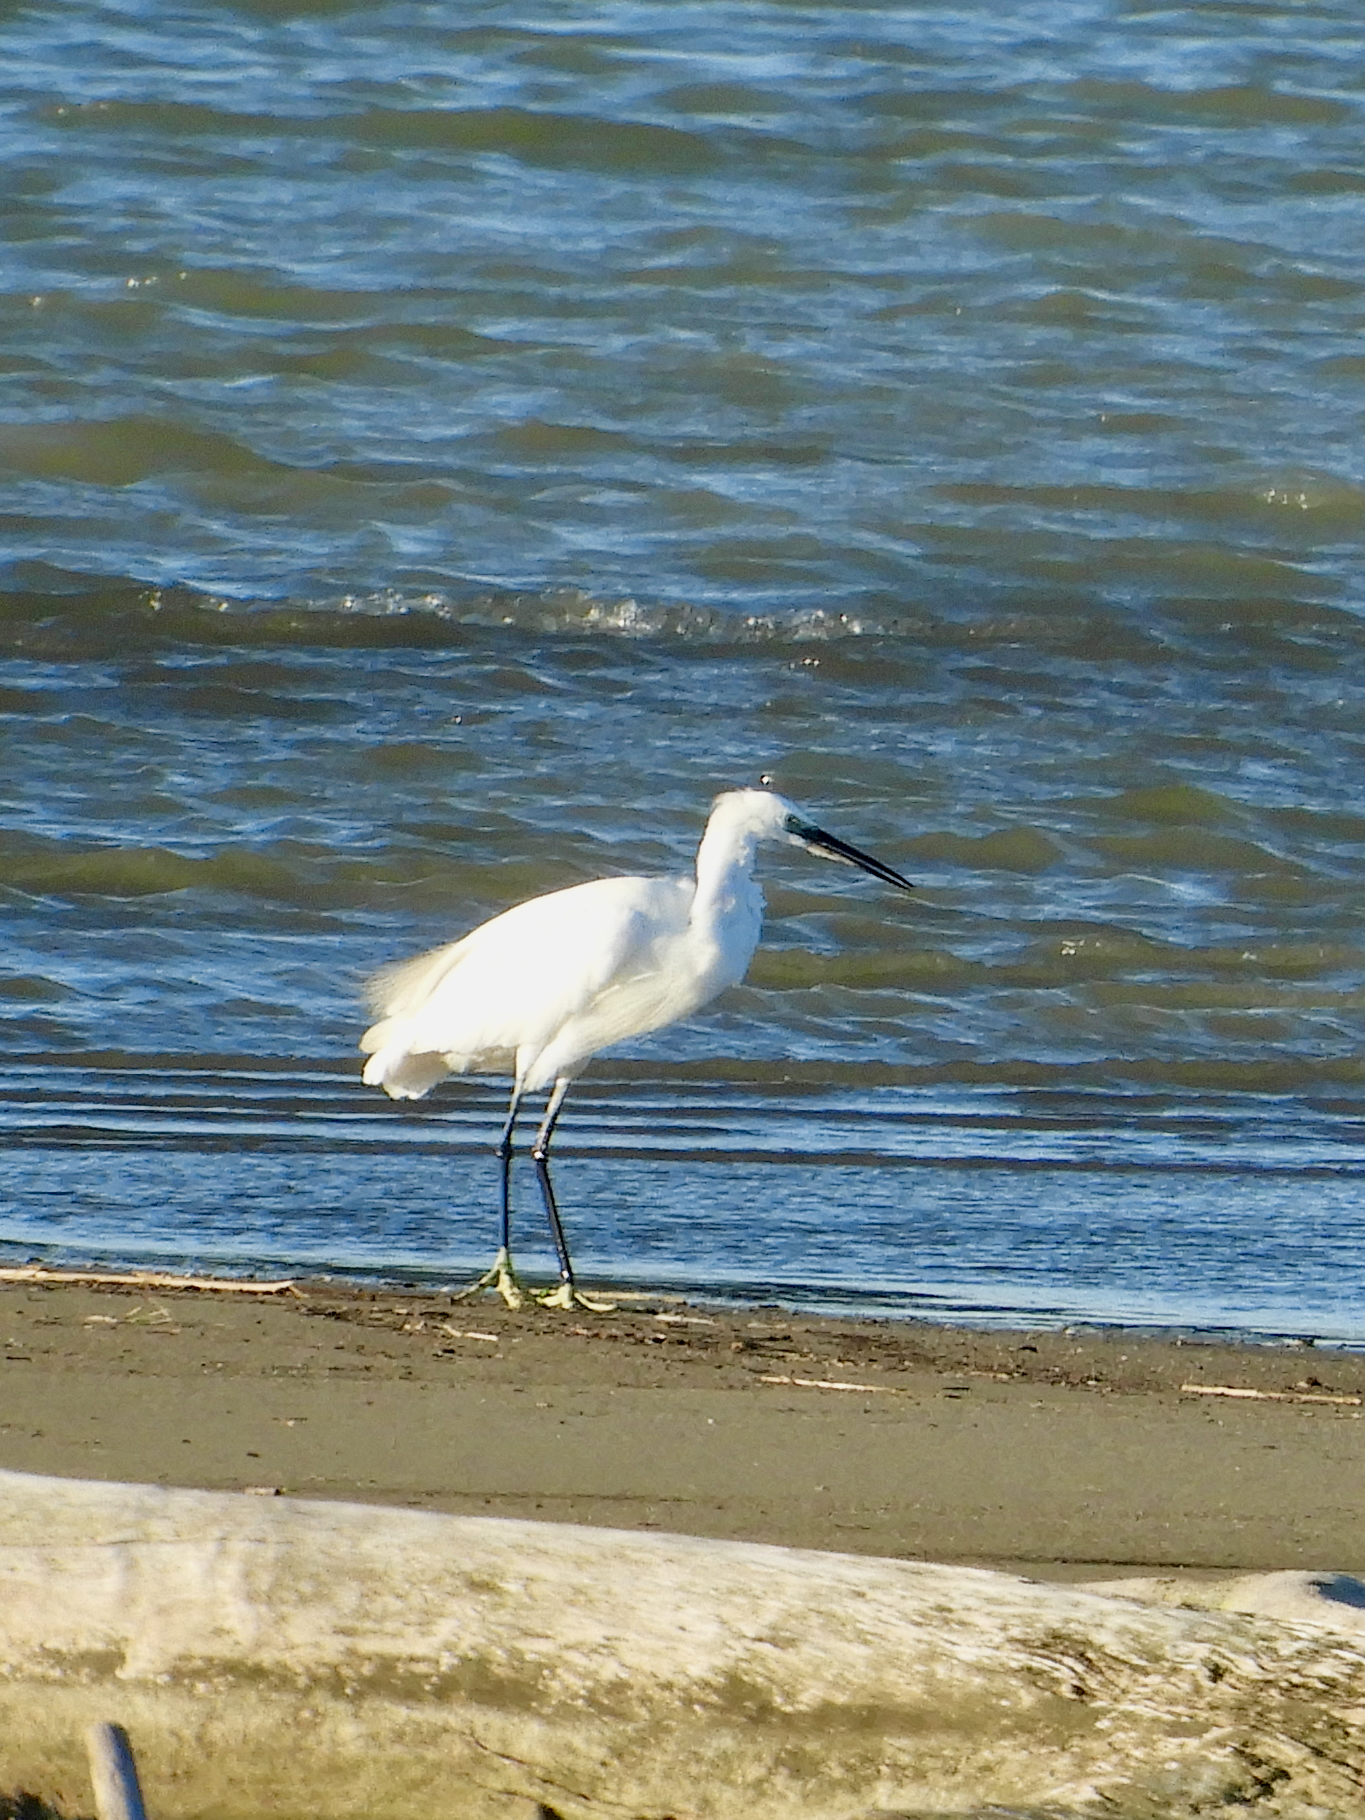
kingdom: Animalia
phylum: Chordata
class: Aves
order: Pelecaniformes
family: Ardeidae
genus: Egretta
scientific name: Egretta garzetta
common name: Little egret
